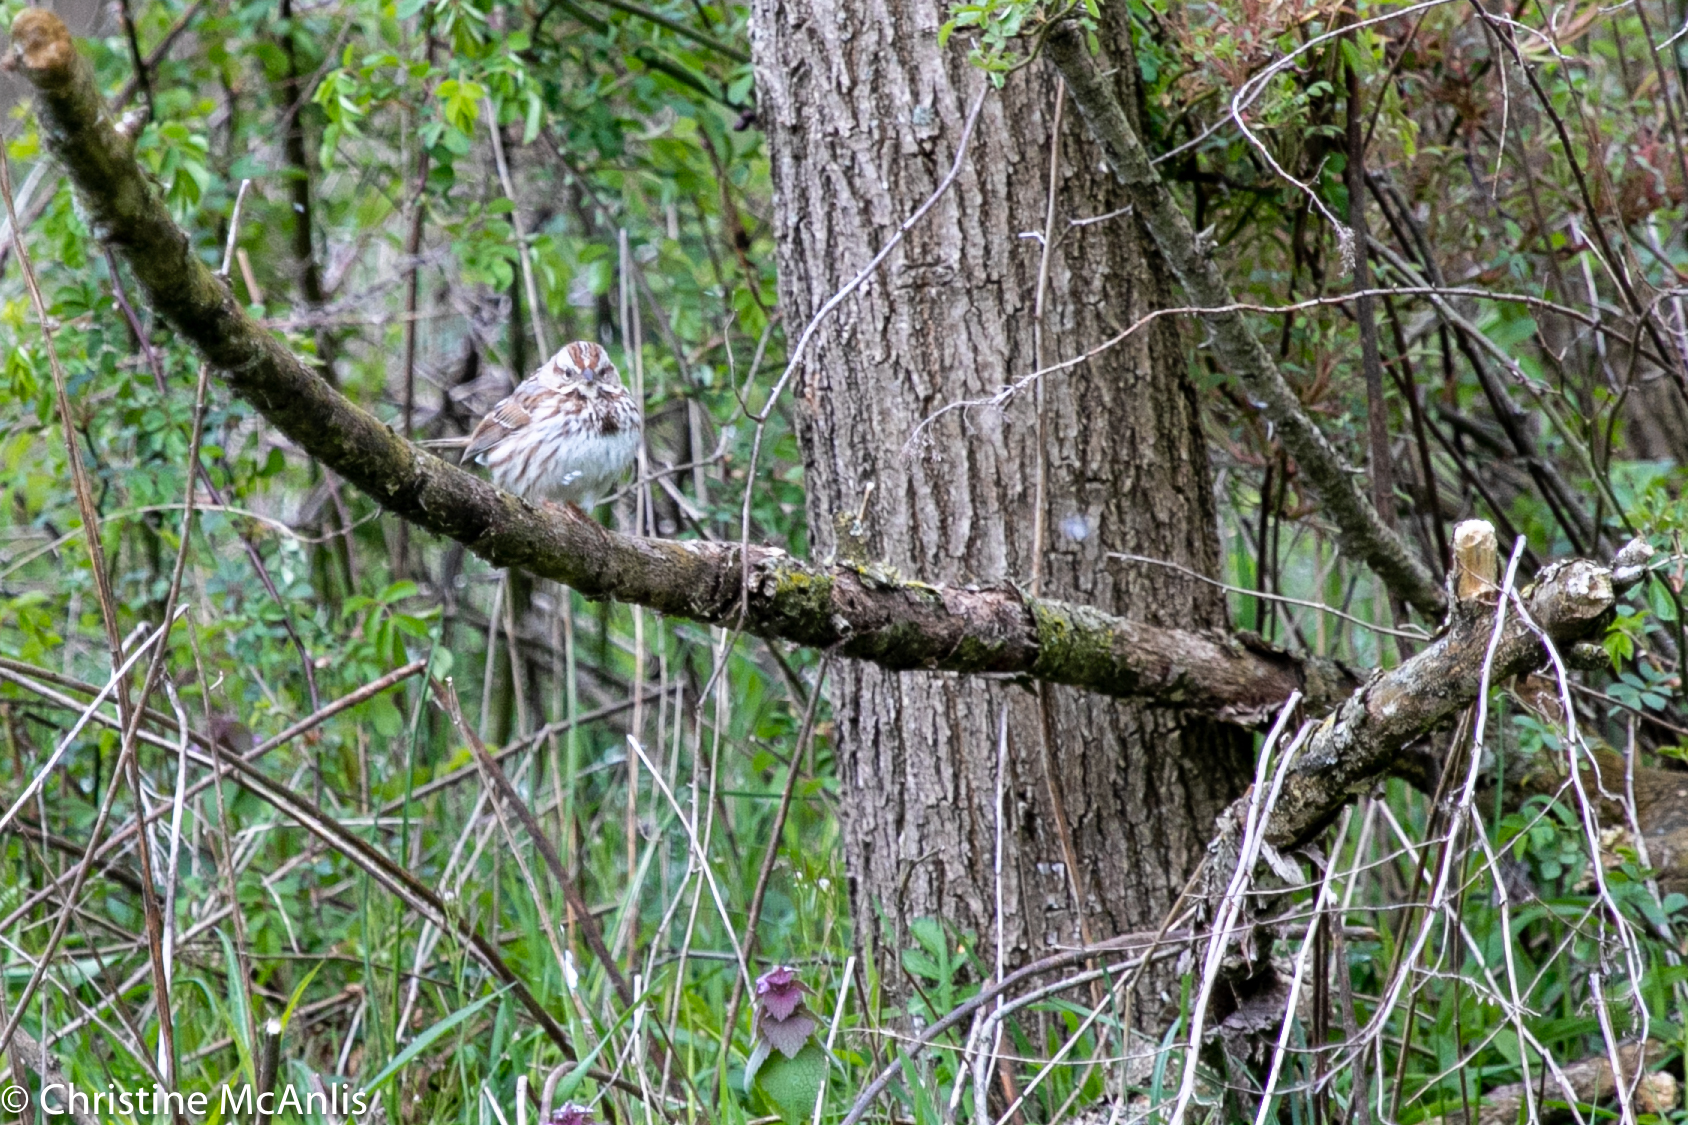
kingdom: Animalia
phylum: Chordata
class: Aves
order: Passeriformes
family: Passerellidae
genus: Melospiza
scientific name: Melospiza melodia
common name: Song sparrow
